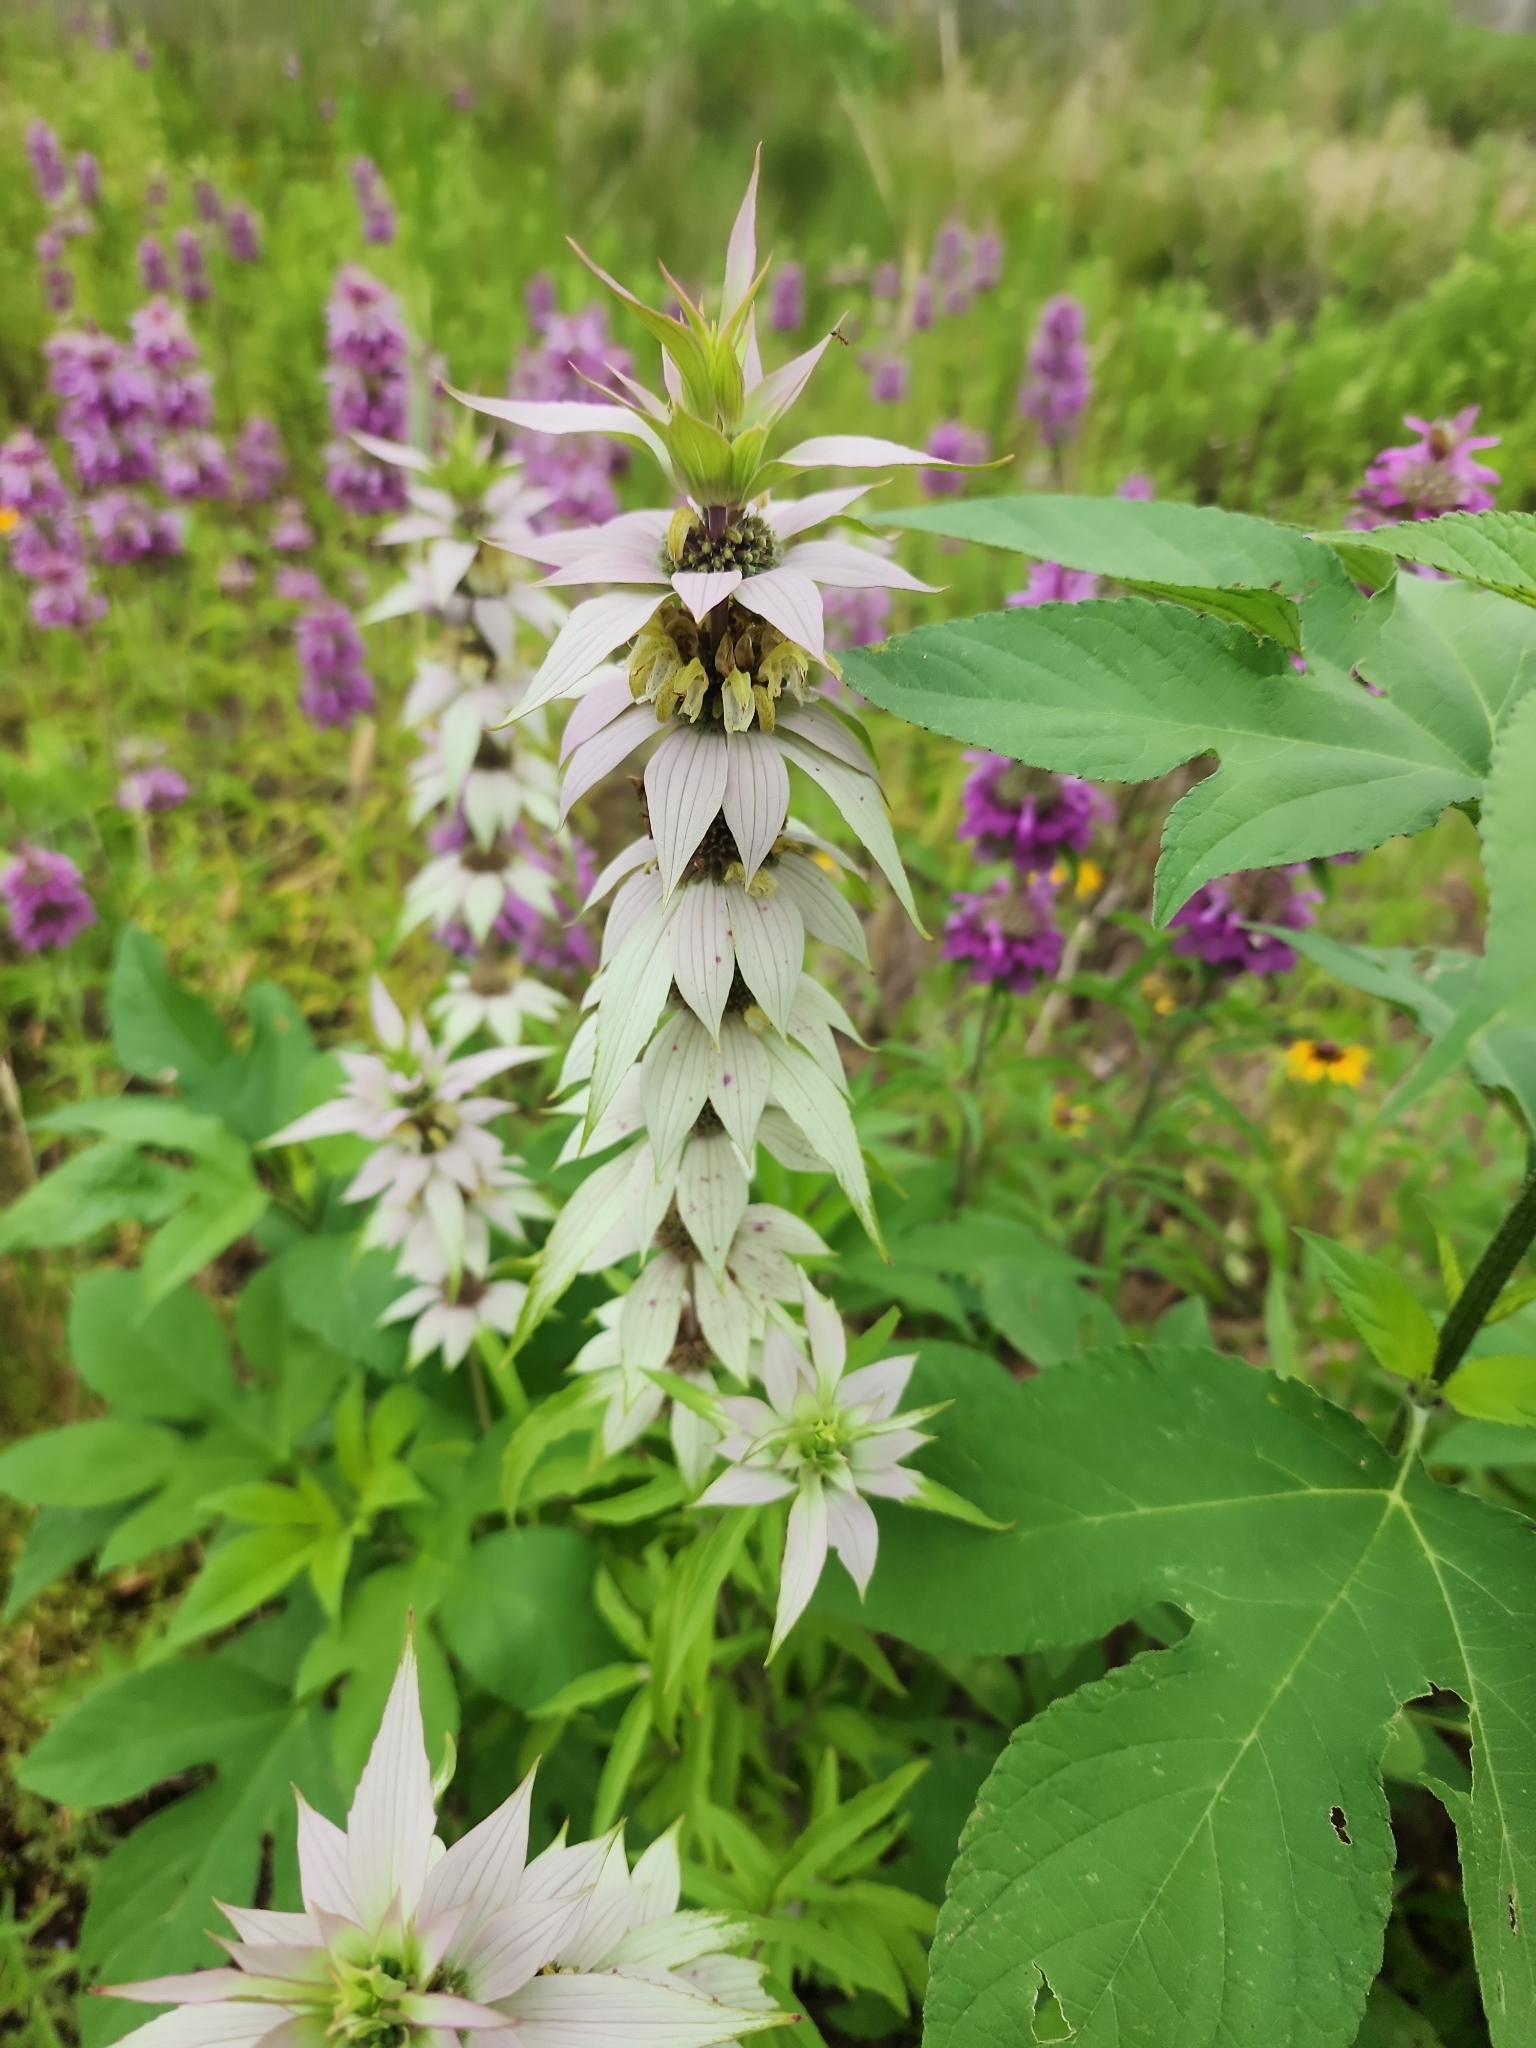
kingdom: Plantae
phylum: Tracheophyta
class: Magnoliopsida
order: Lamiales
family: Lamiaceae
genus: Monarda
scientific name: Monarda punctata
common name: Dotted monarda
